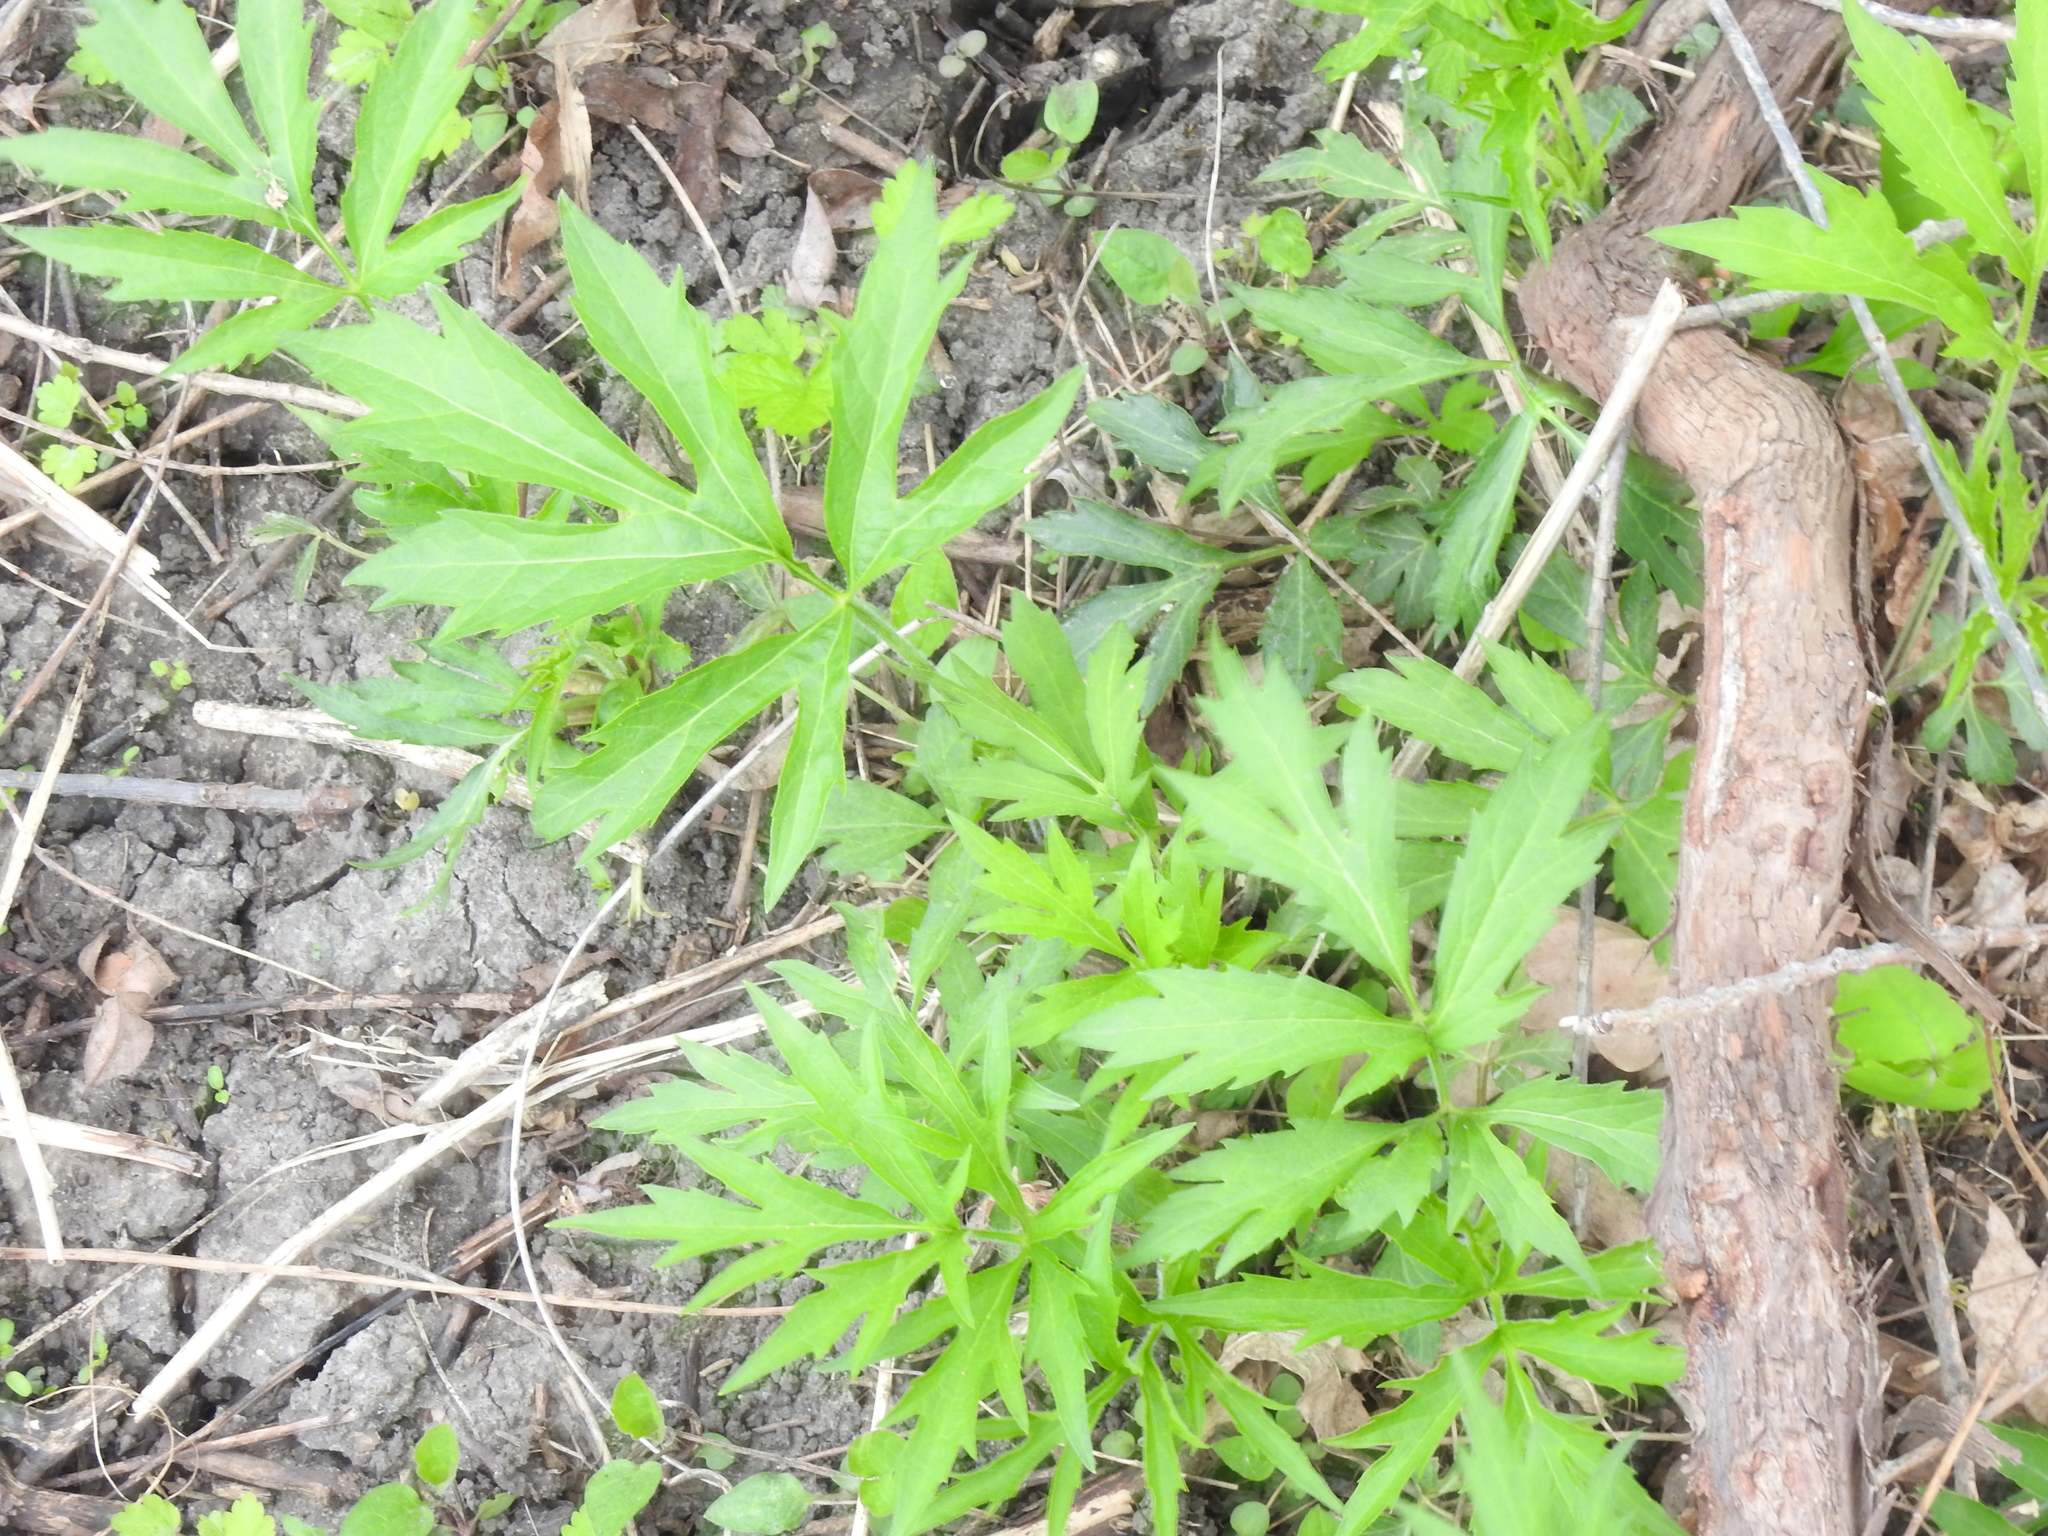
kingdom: Plantae
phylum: Tracheophyta
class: Magnoliopsida
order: Asterales
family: Asteraceae
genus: Artemisia
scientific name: Artemisia vulgaris
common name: Mugwort
